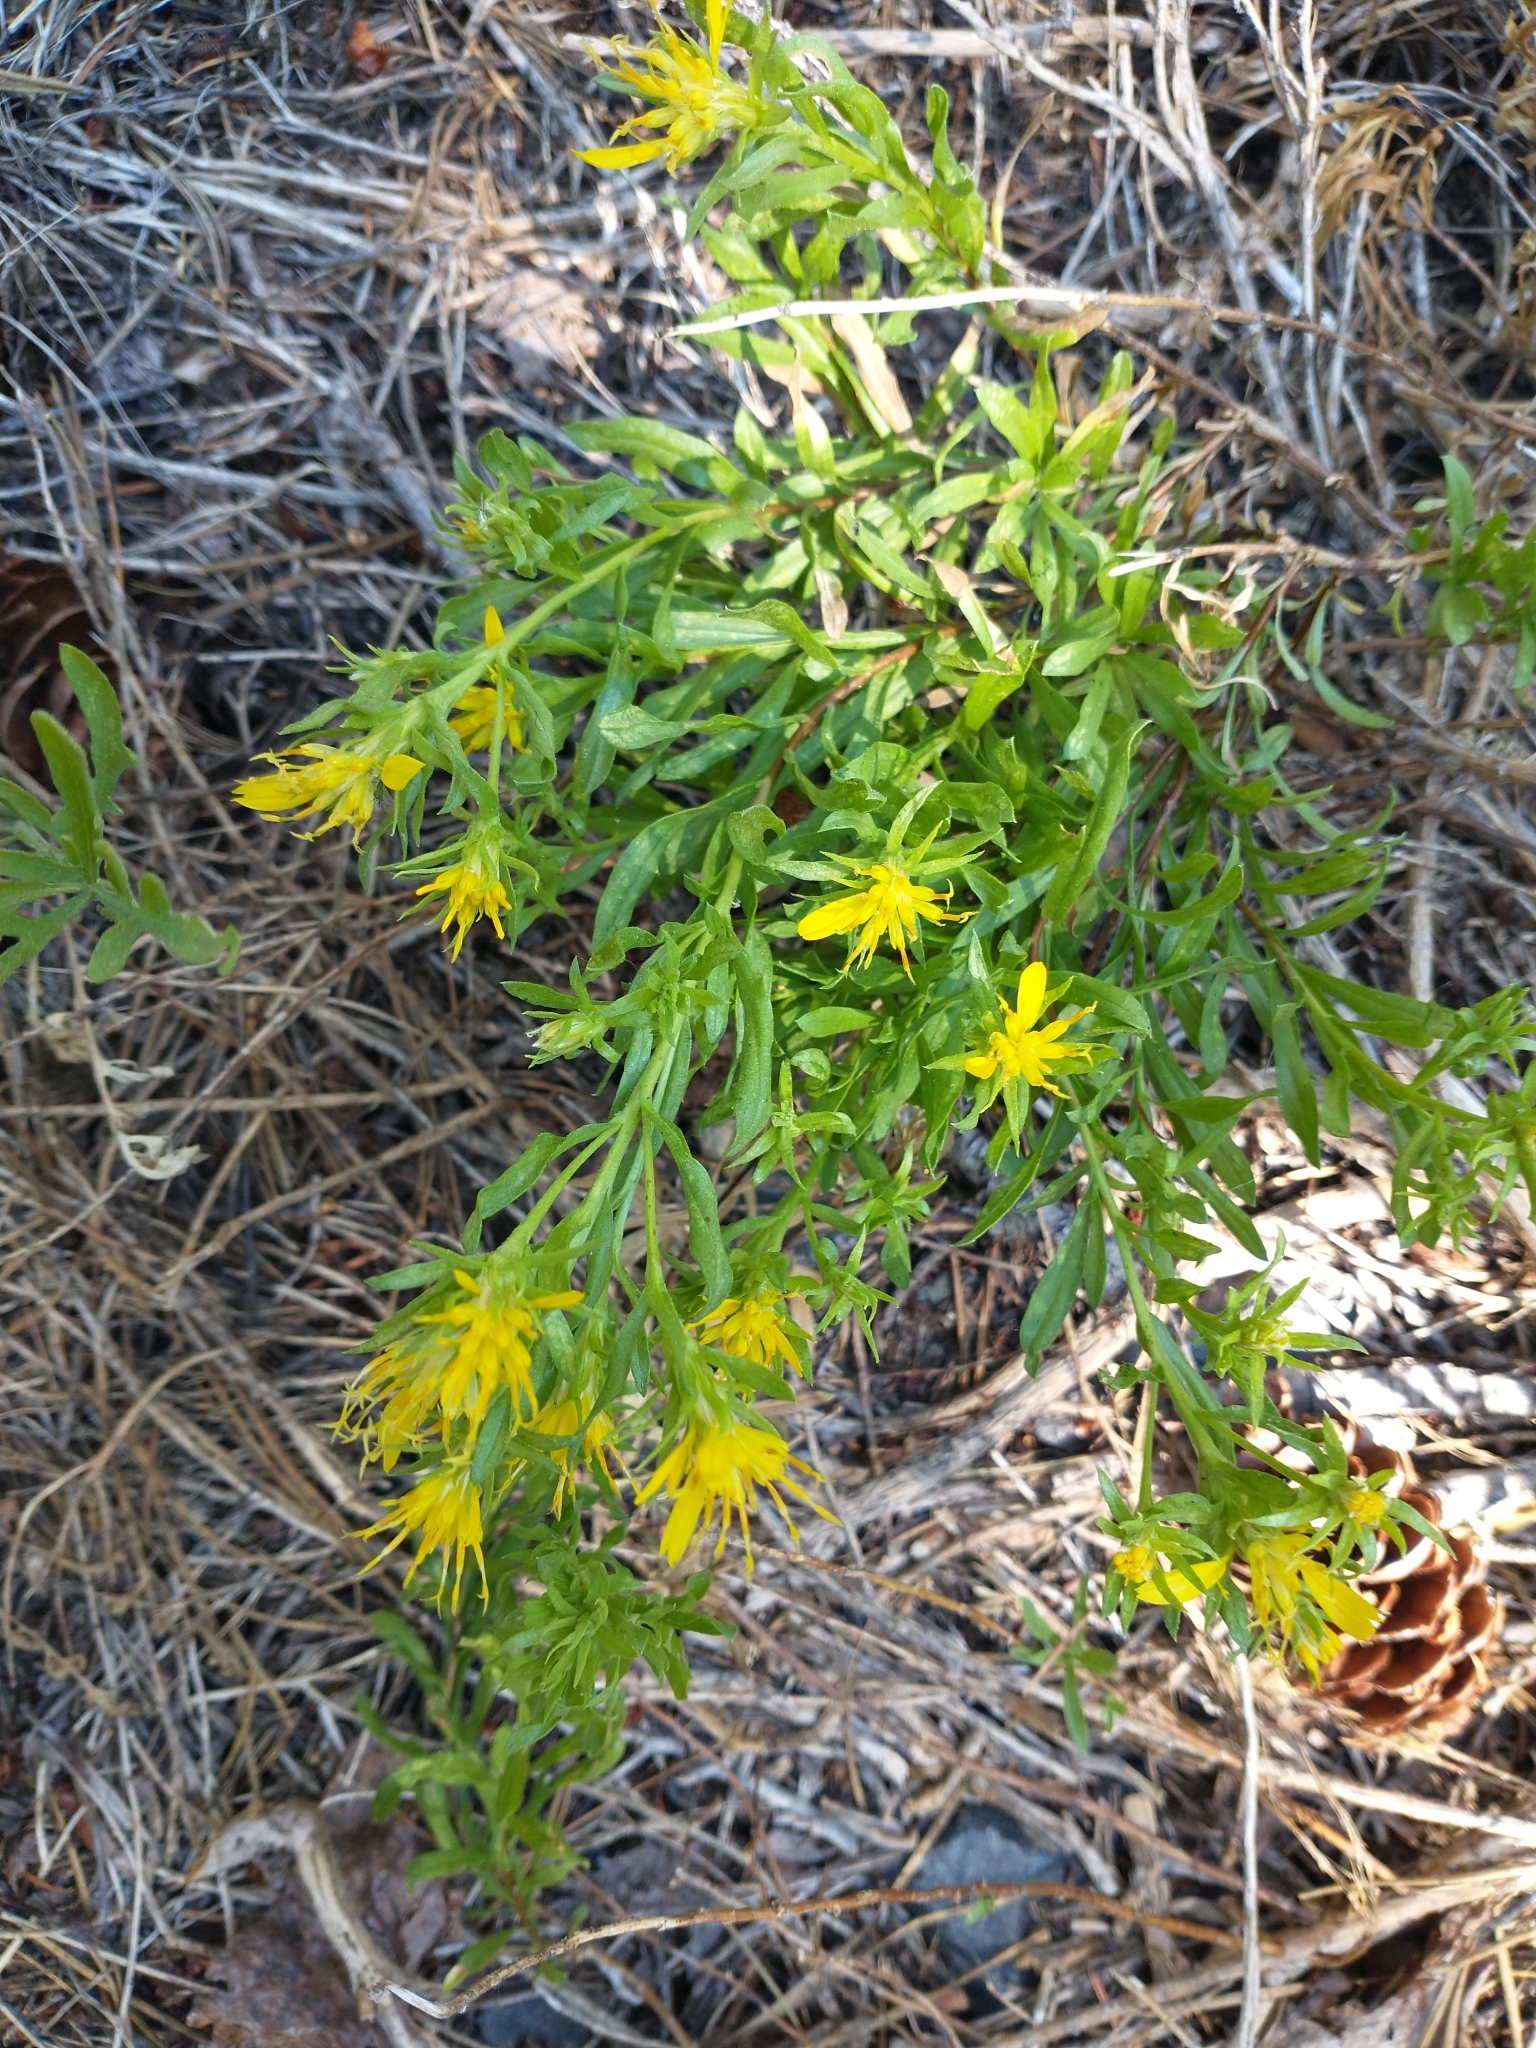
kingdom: Plantae
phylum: Tracheophyta
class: Magnoliopsida
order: Asterales
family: Asteraceae
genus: Ericameria
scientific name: Ericameria greenei
